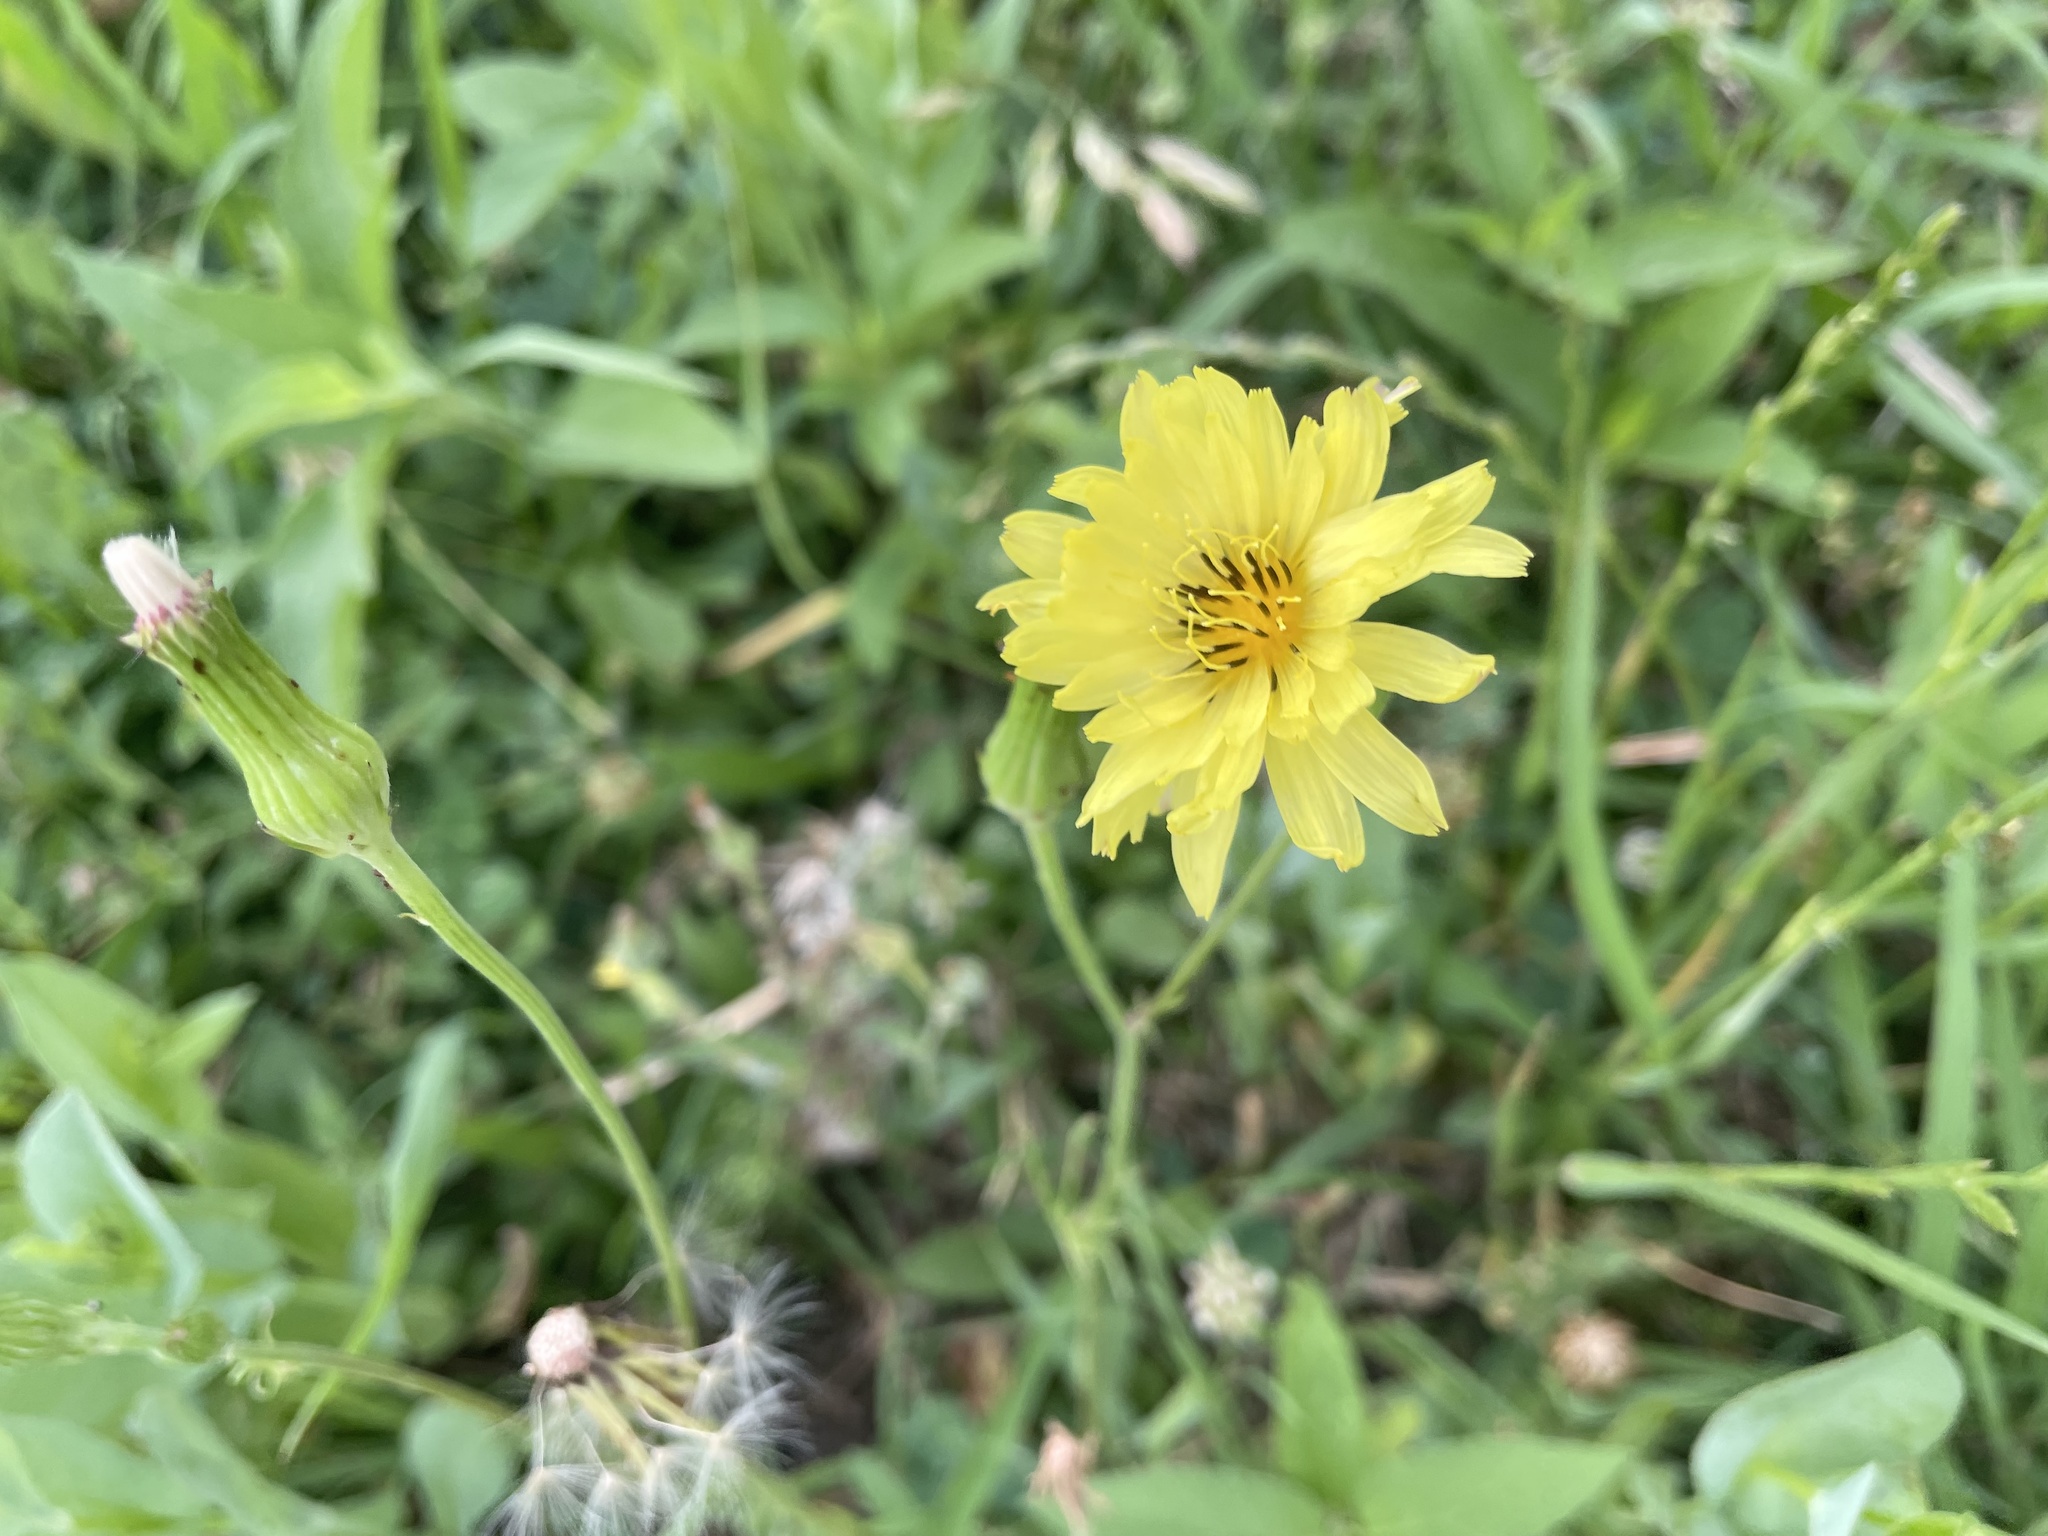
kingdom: Plantae
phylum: Tracheophyta
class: Magnoliopsida
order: Asterales
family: Asteraceae
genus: Pyrrhopappus
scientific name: Pyrrhopappus pauciflorus
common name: Texas false dandelion
